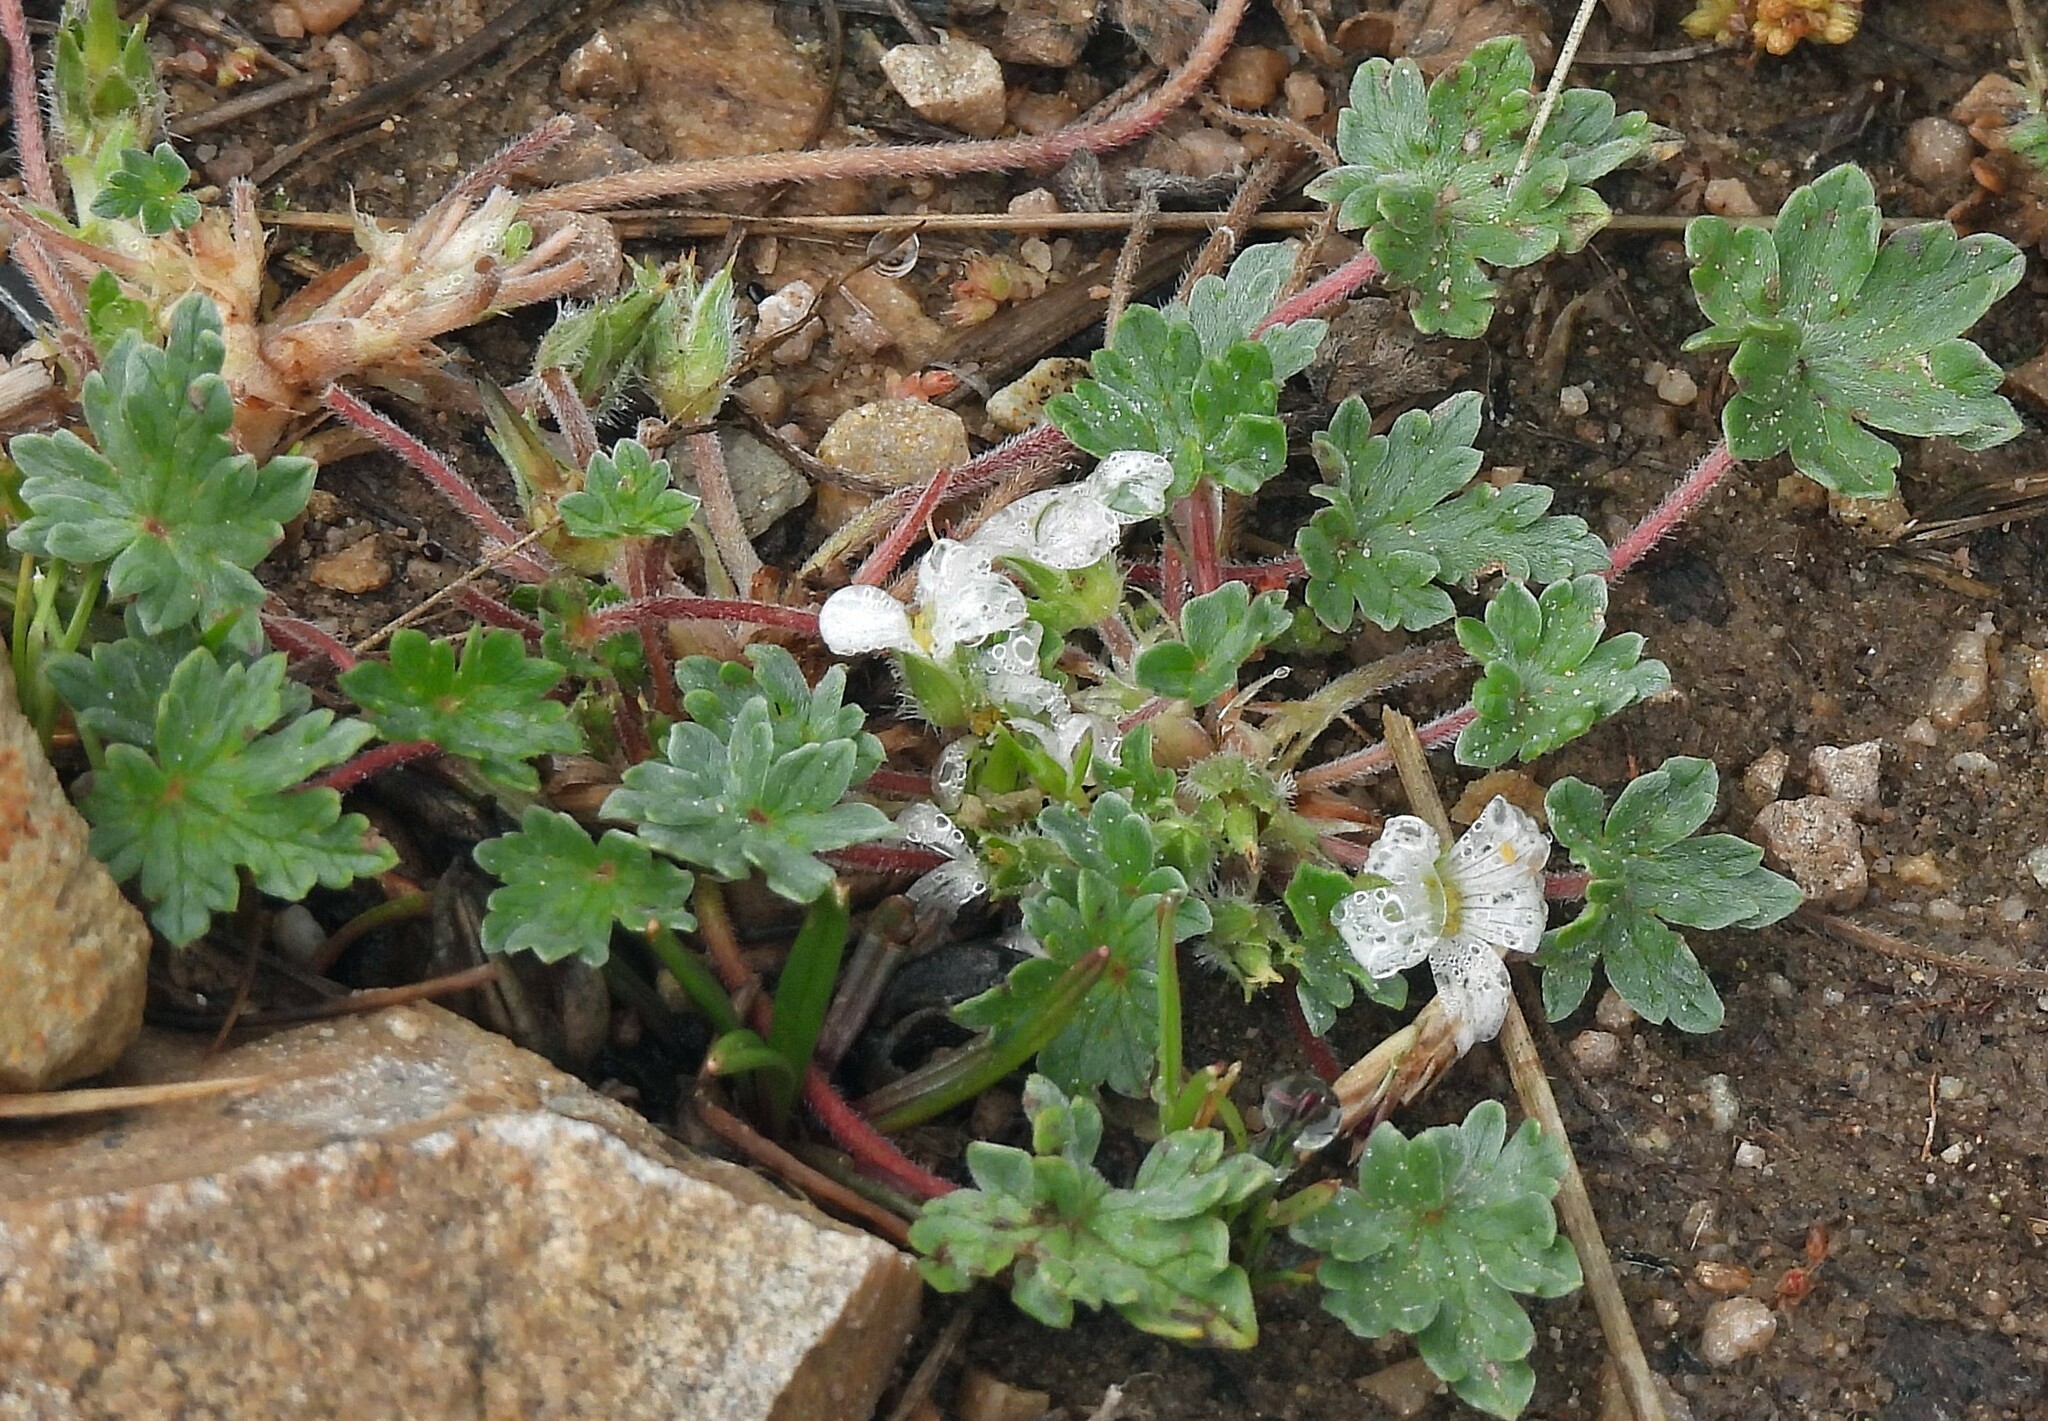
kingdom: Plantae
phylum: Tracheophyta
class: Magnoliopsida
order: Geraniales
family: Geraniaceae
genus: Geranium
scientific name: Geranium sessiliflorum
